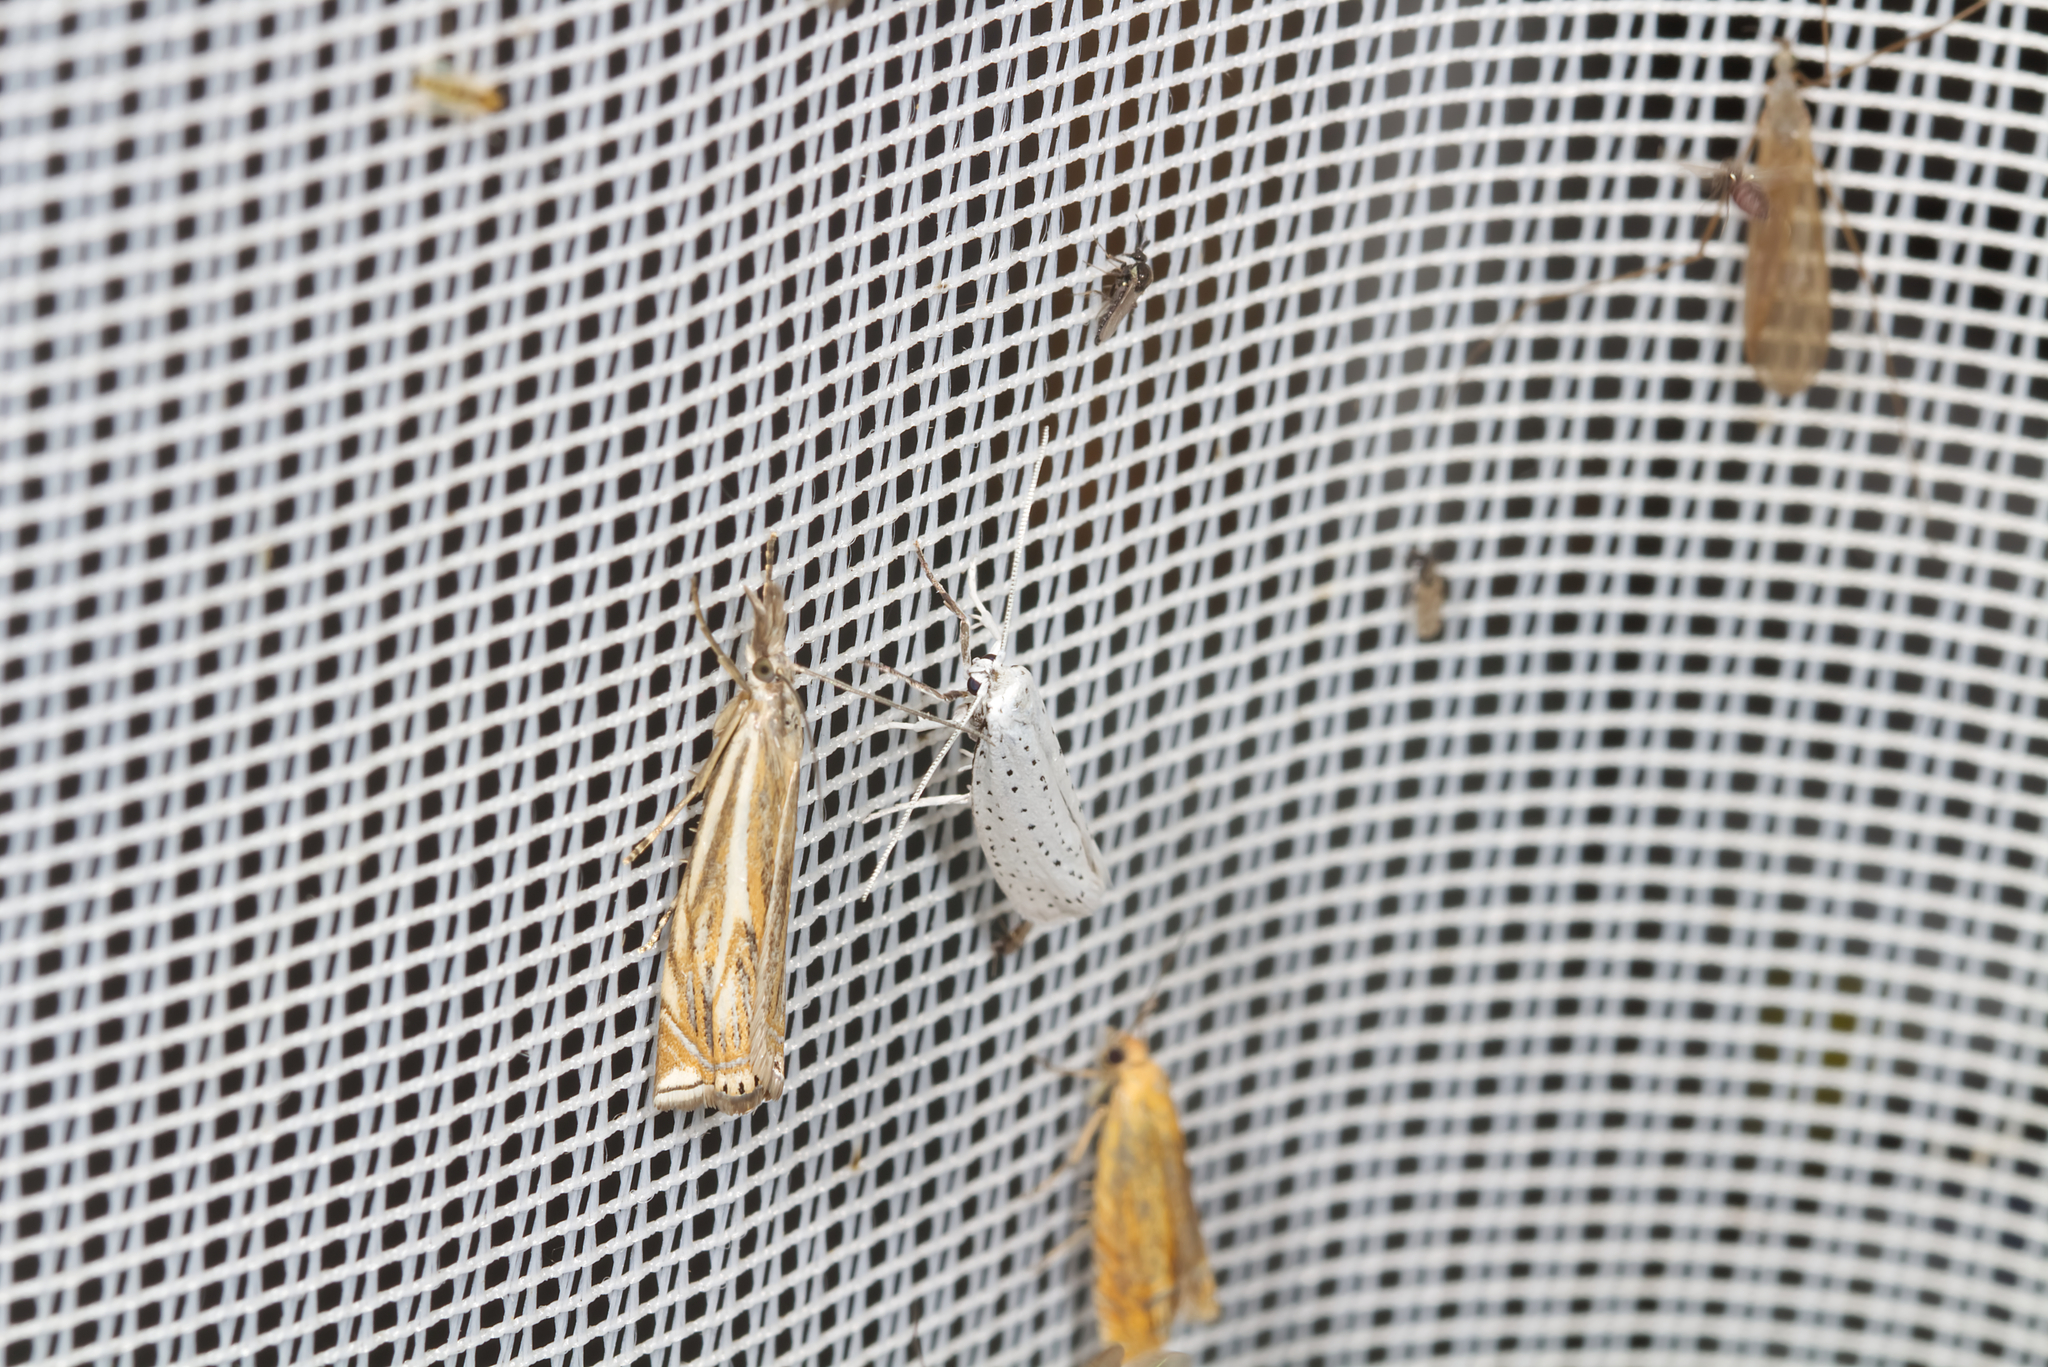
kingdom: Animalia
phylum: Arthropoda
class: Insecta
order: Lepidoptera
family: Crambidae
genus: Crambus
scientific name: Crambus nemorella
